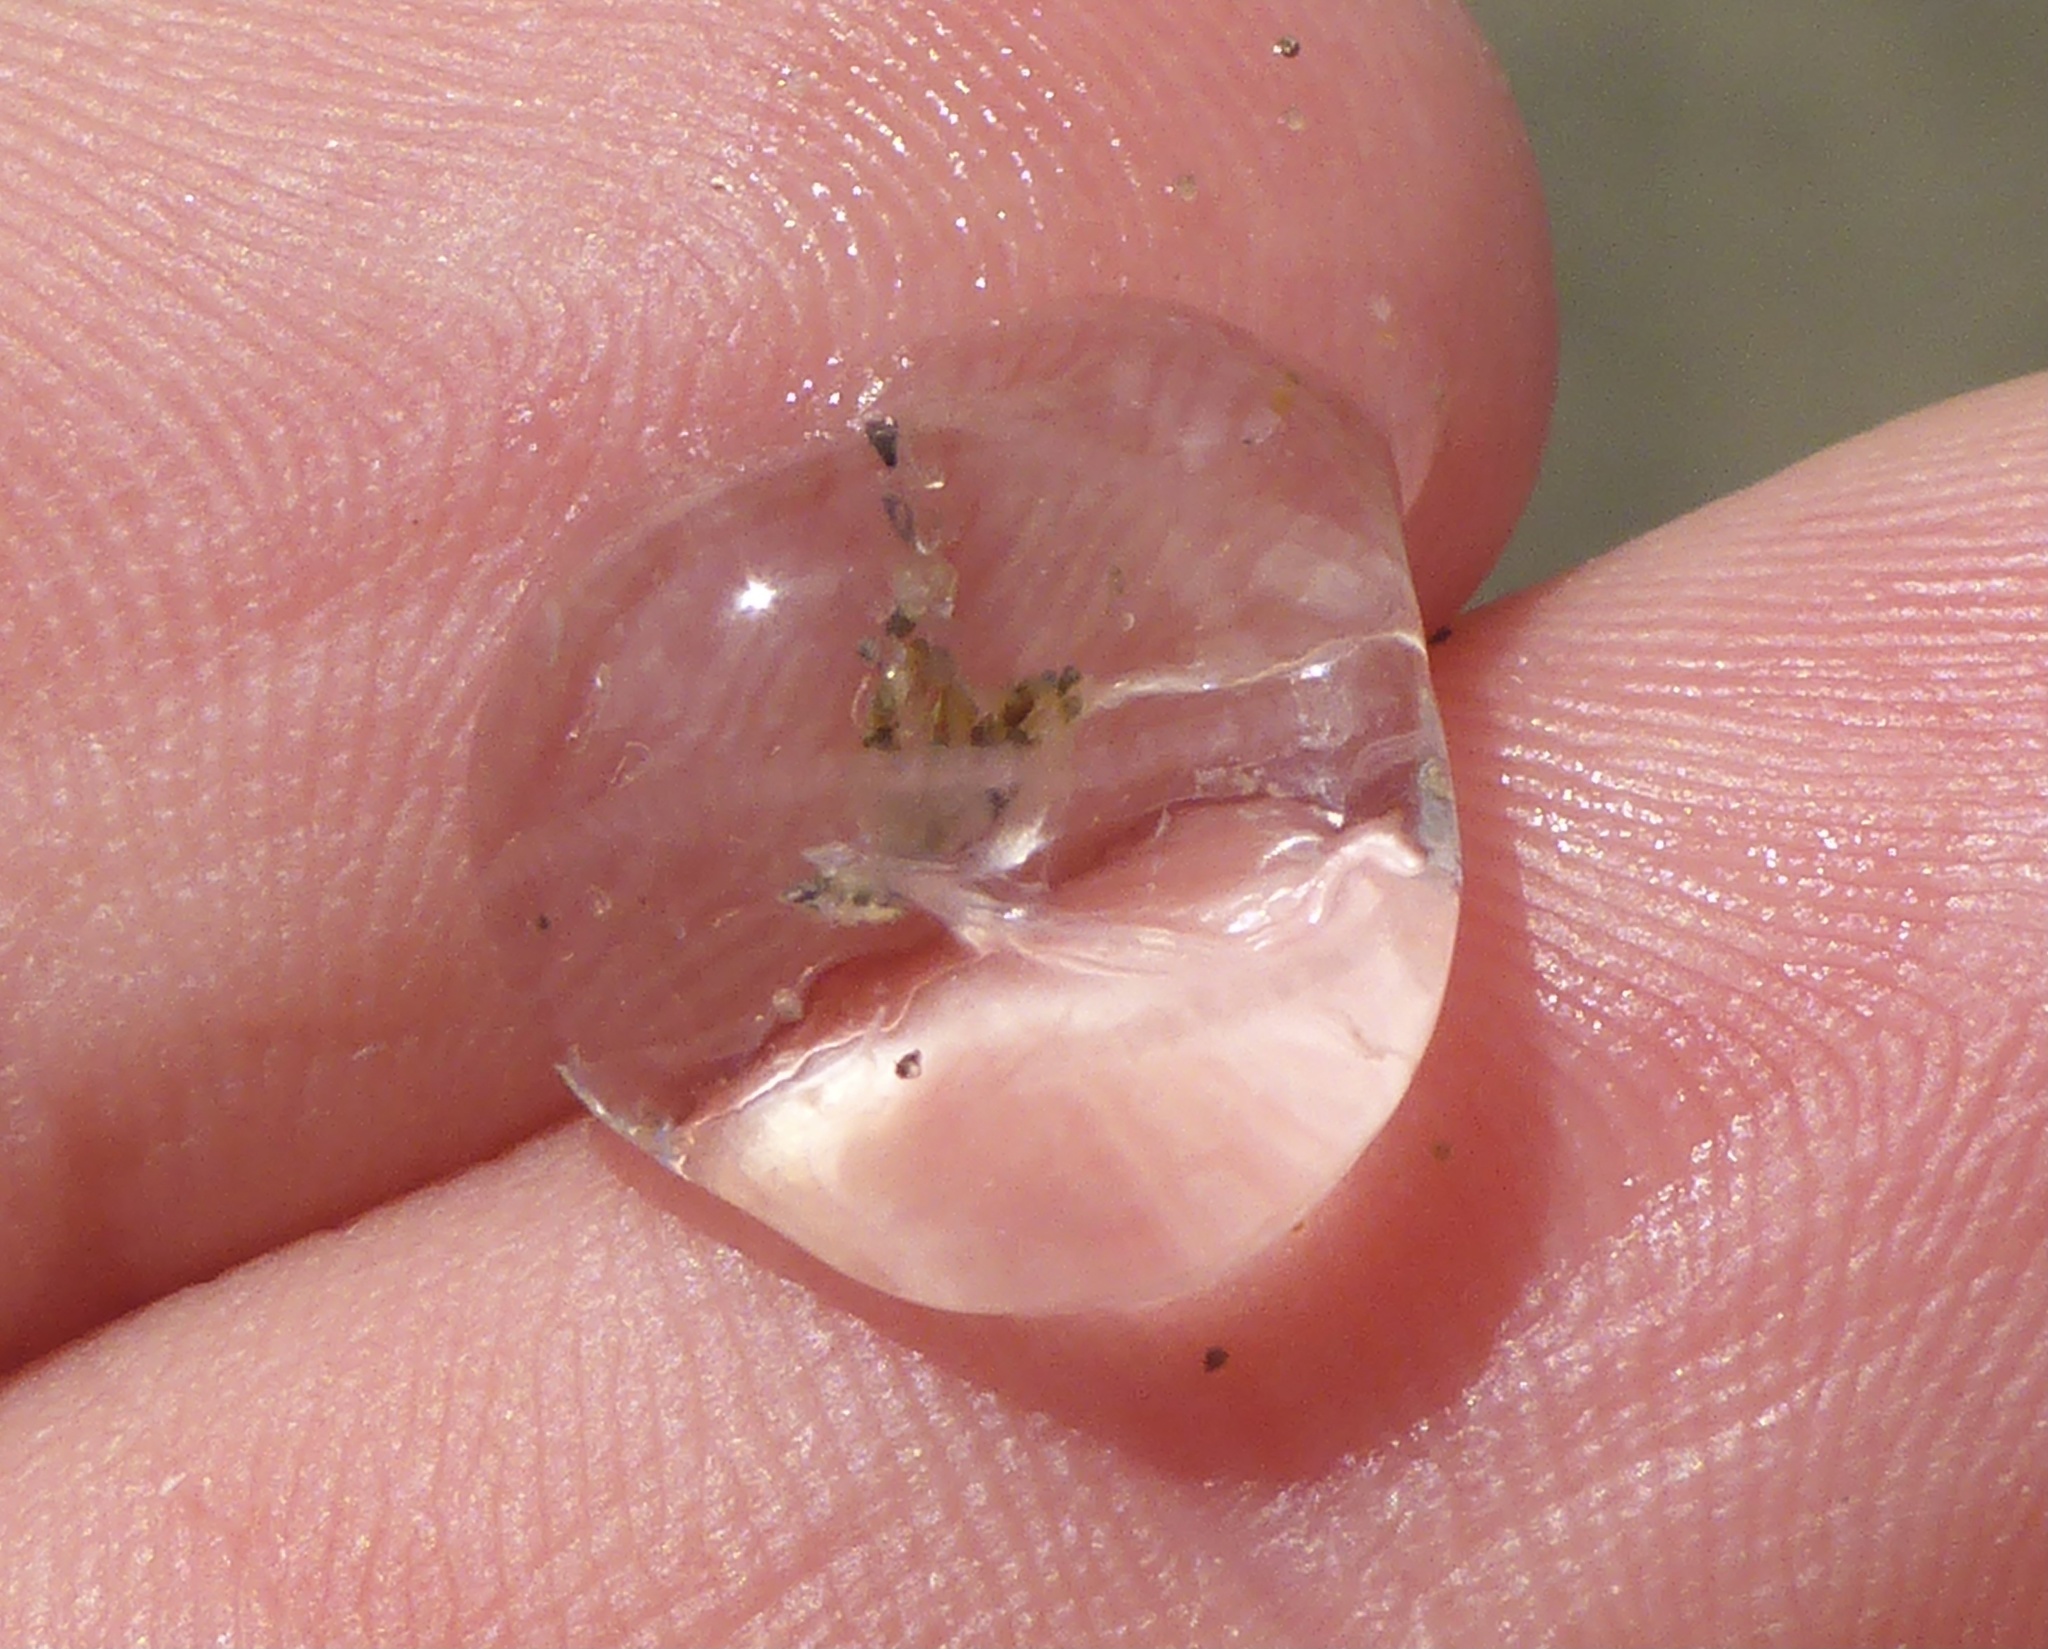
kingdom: Animalia
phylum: Ctenophora
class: Tentaculata
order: Cydippida
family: Pleurobrachiidae
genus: Pleurobrachia
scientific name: Pleurobrachia bachei
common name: Pacific sea gooseberry
